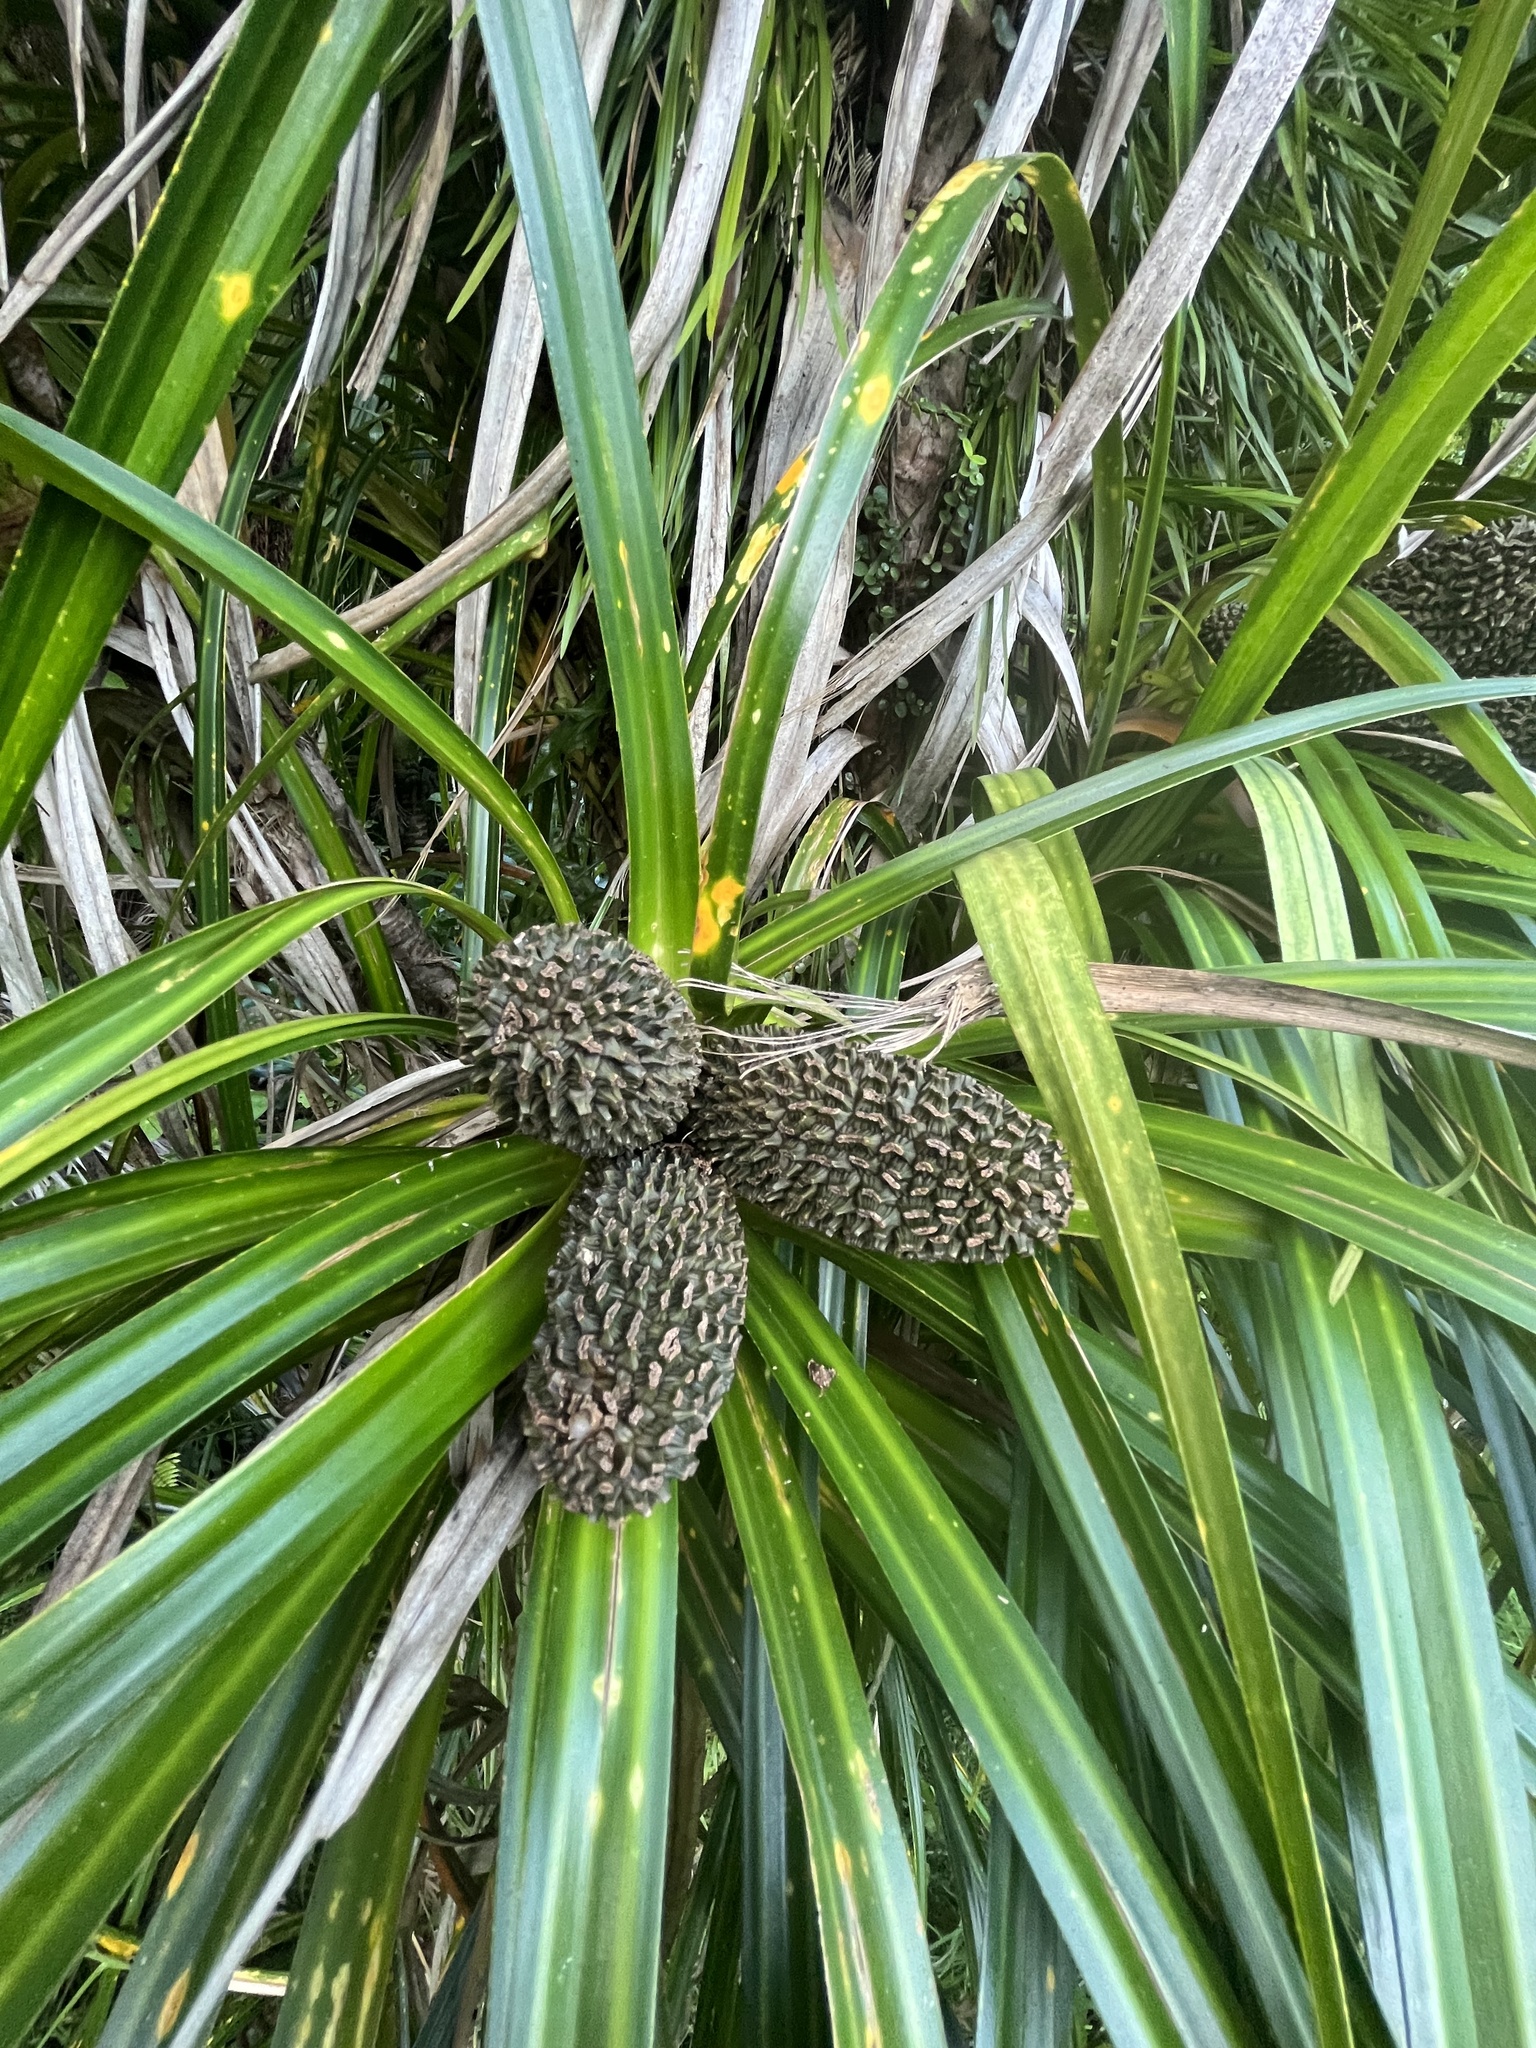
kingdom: Plantae
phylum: Tracheophyta
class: Liliopsida
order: Pandanales
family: Pandanaceae
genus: Freycinetia
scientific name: Freycinetia banksii
